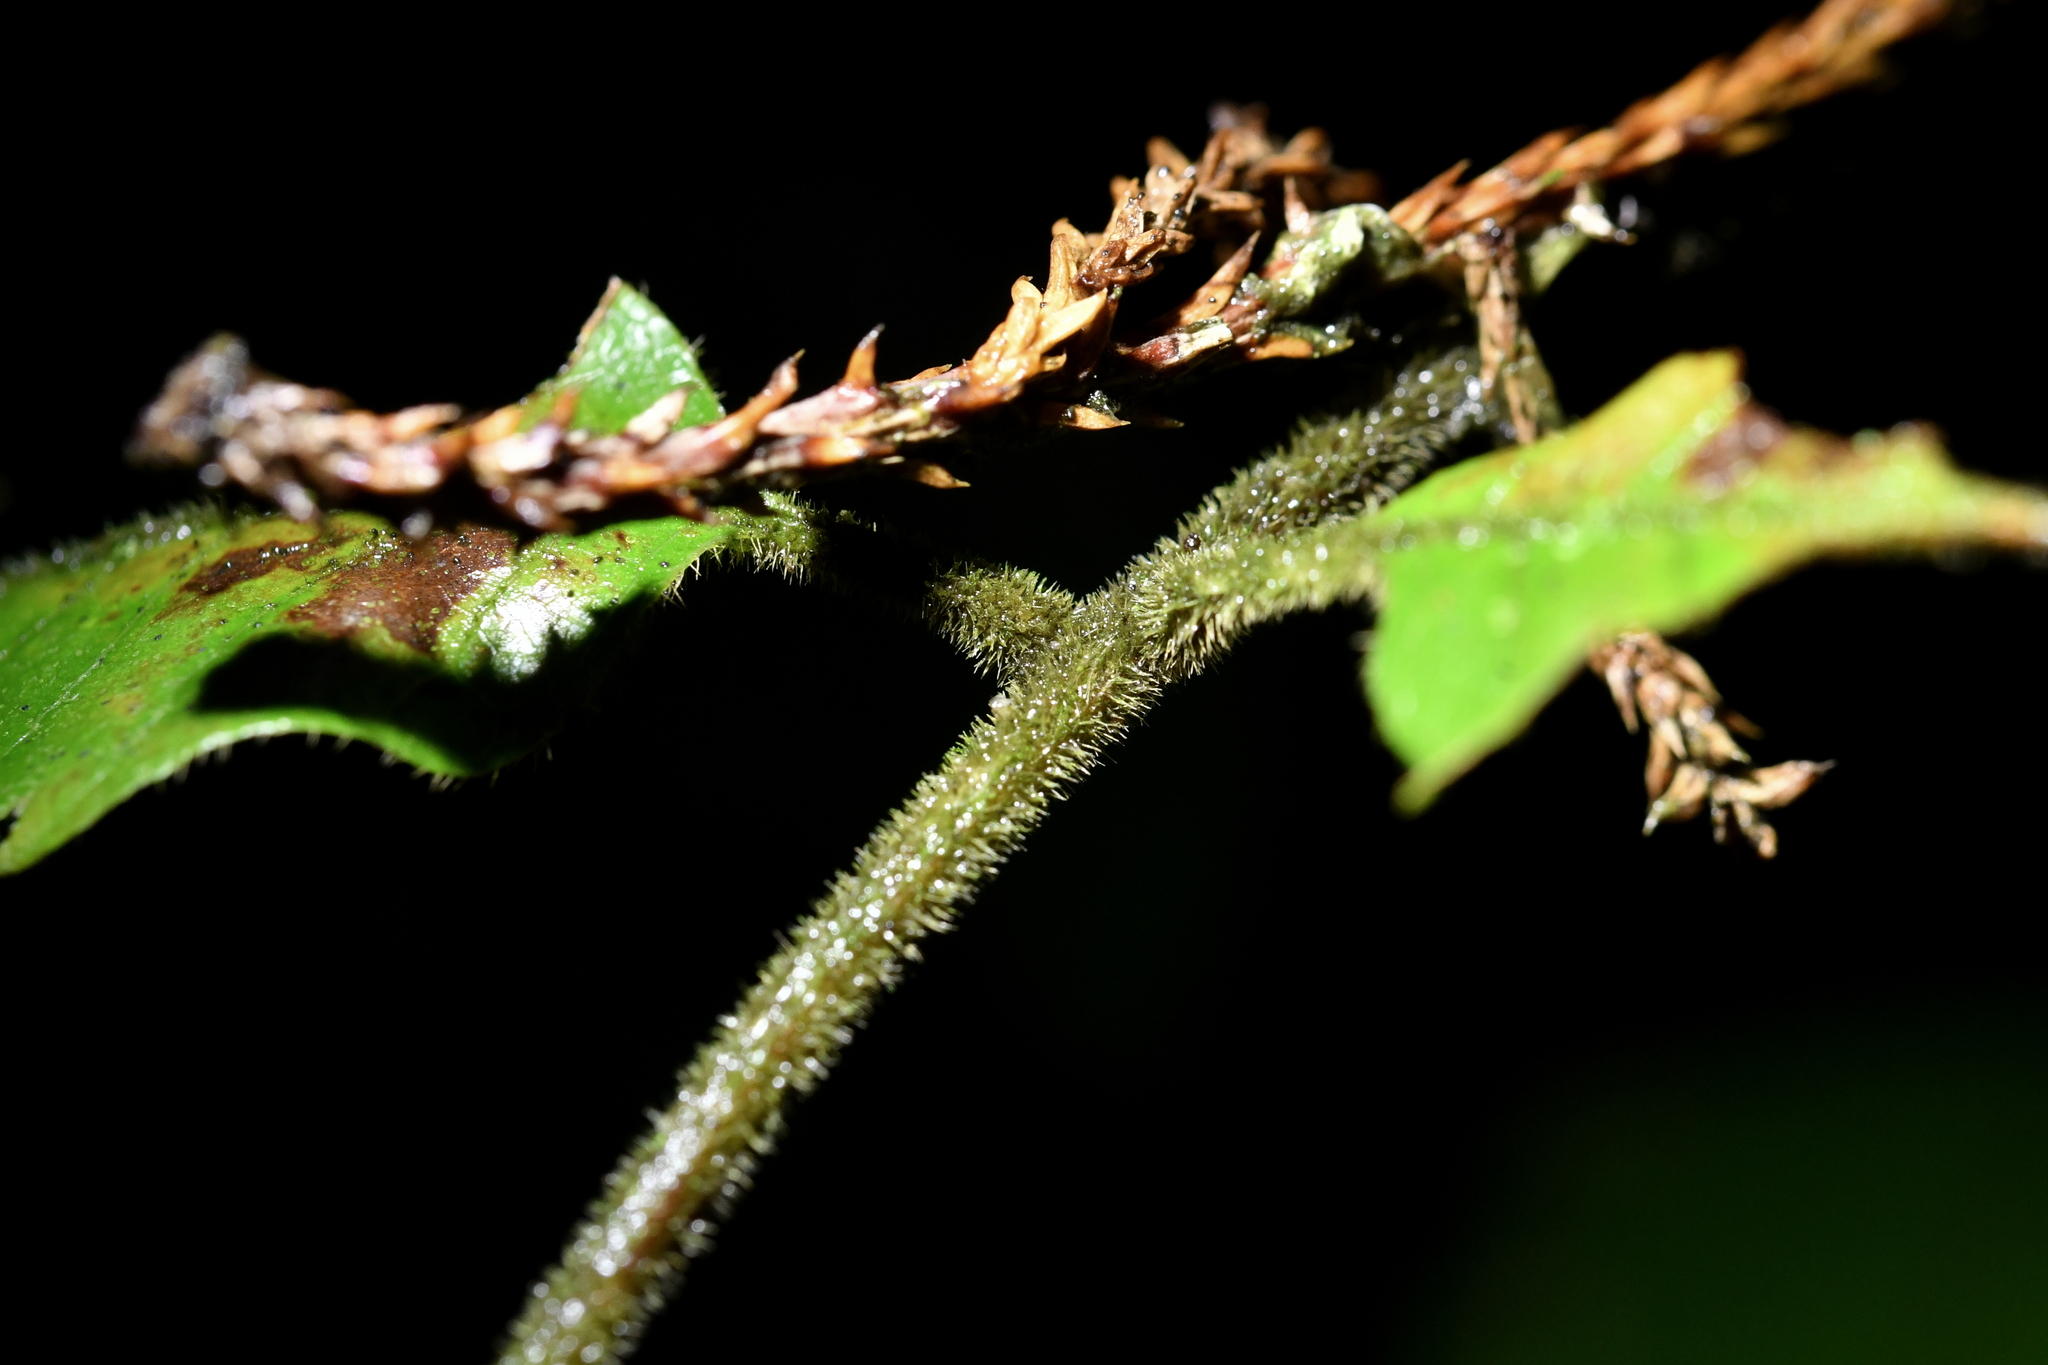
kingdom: Plantae
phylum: Tracheophyta
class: Magnoliopsida
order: Sapindales
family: Sapindaceae
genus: Alectryon
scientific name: Alectryon excelsus
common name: Three kings titoki
